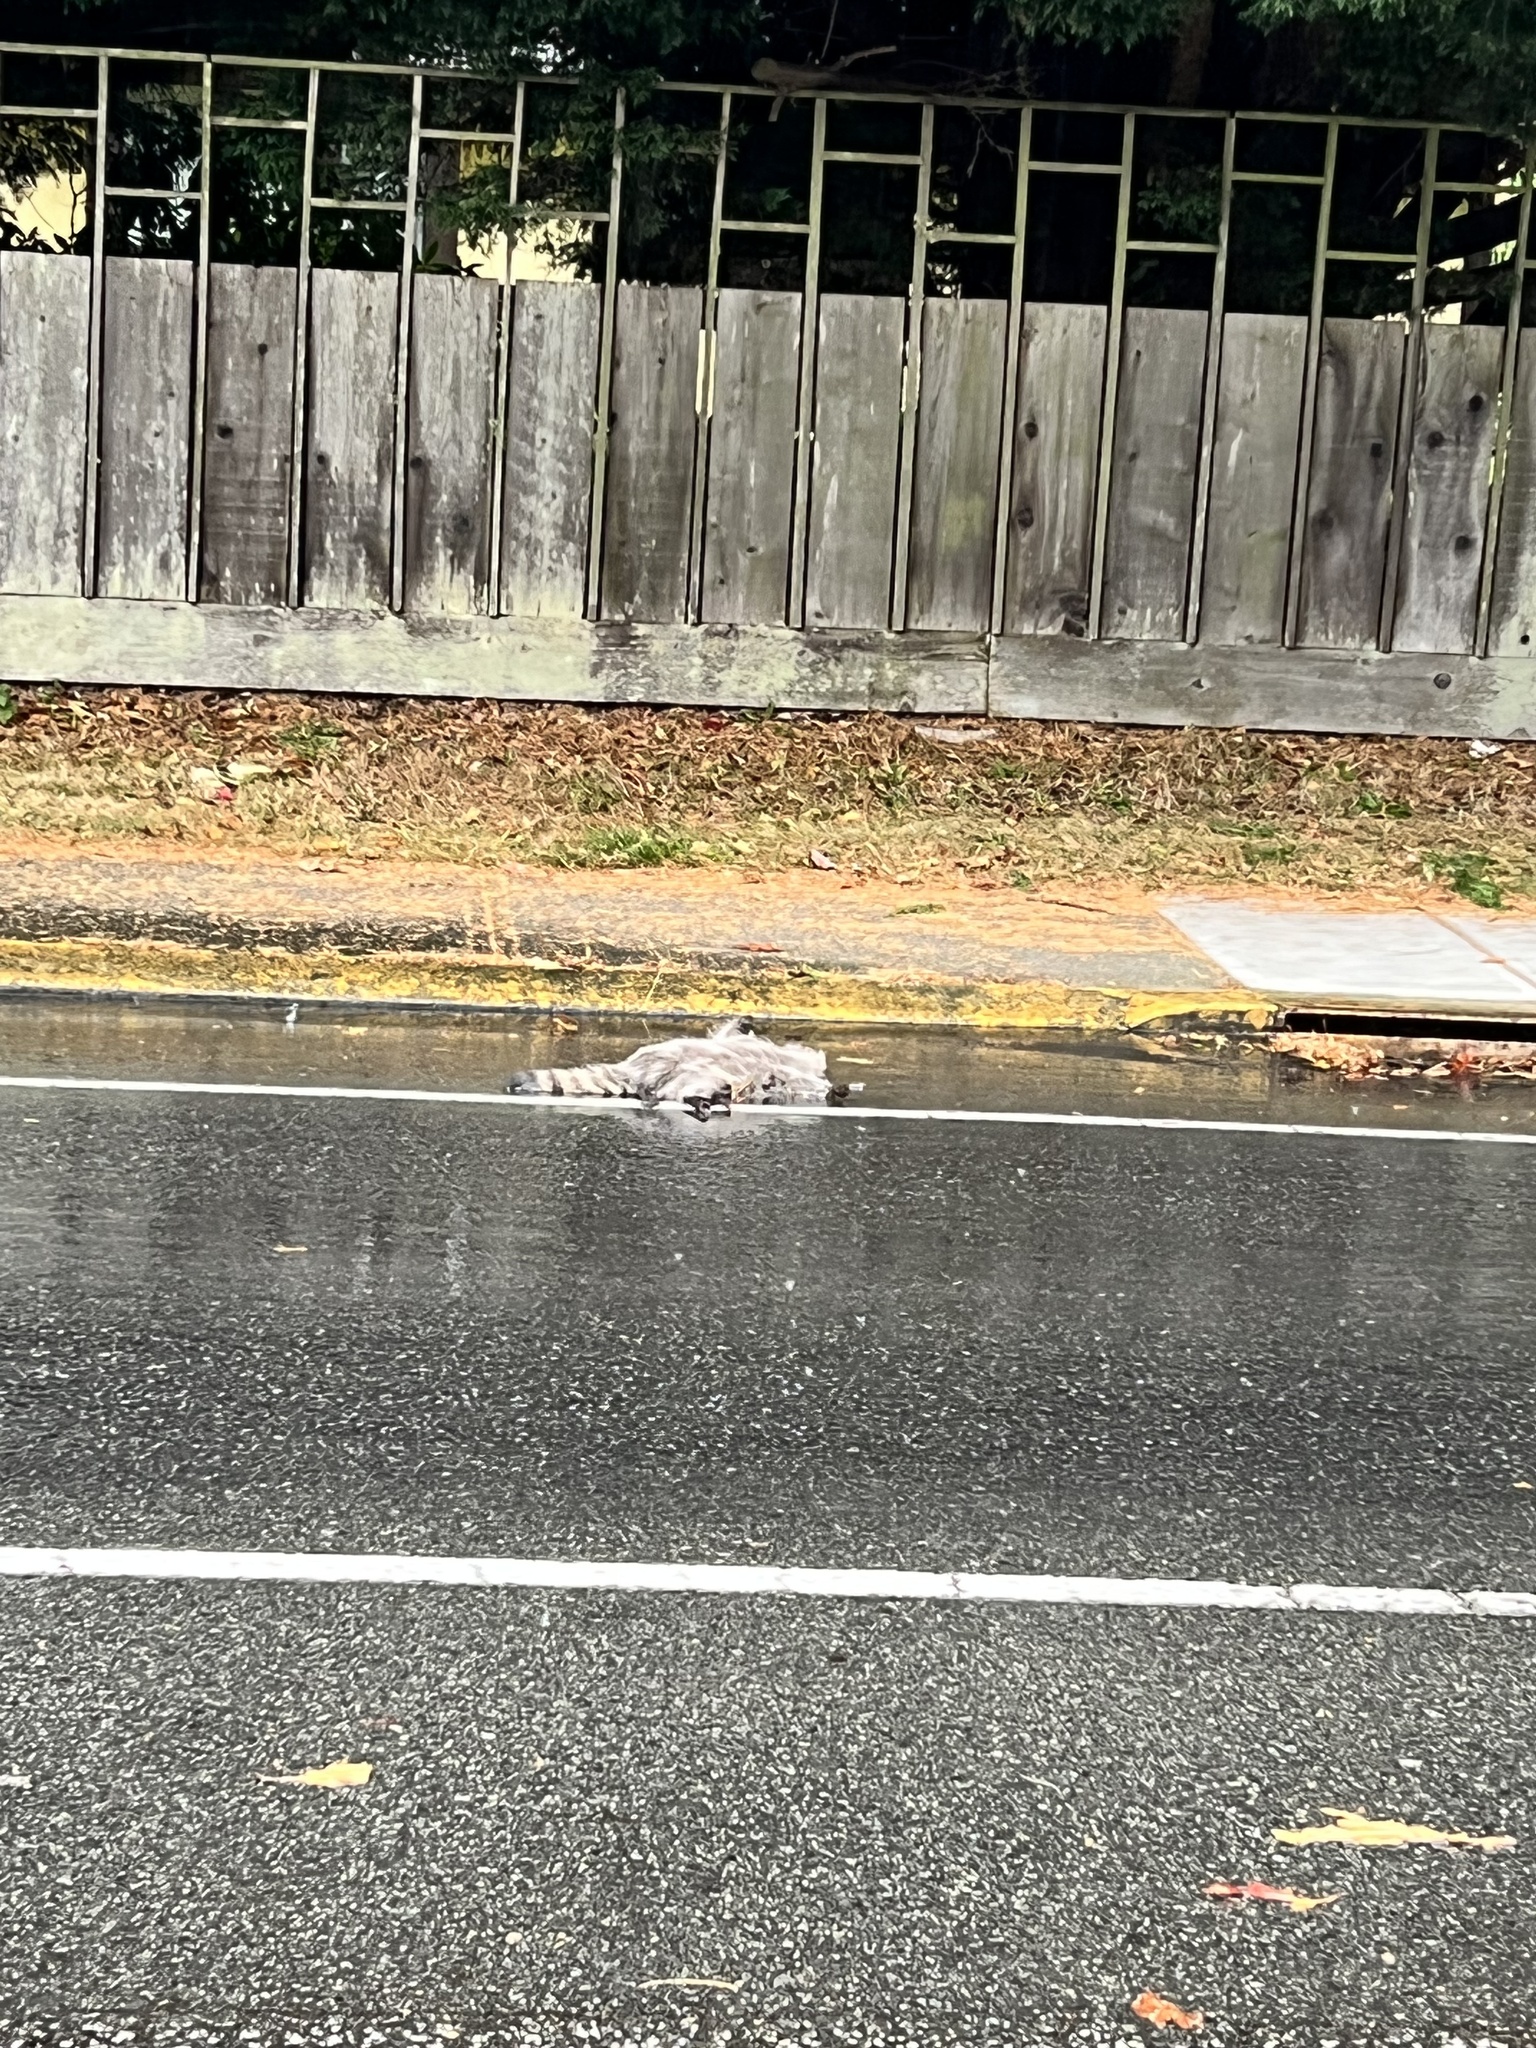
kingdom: Animalia
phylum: Chordata
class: Mammalia
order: Carnivora
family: Procyonidae
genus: Procyon
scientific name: Procyon lotor
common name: Raccoon
